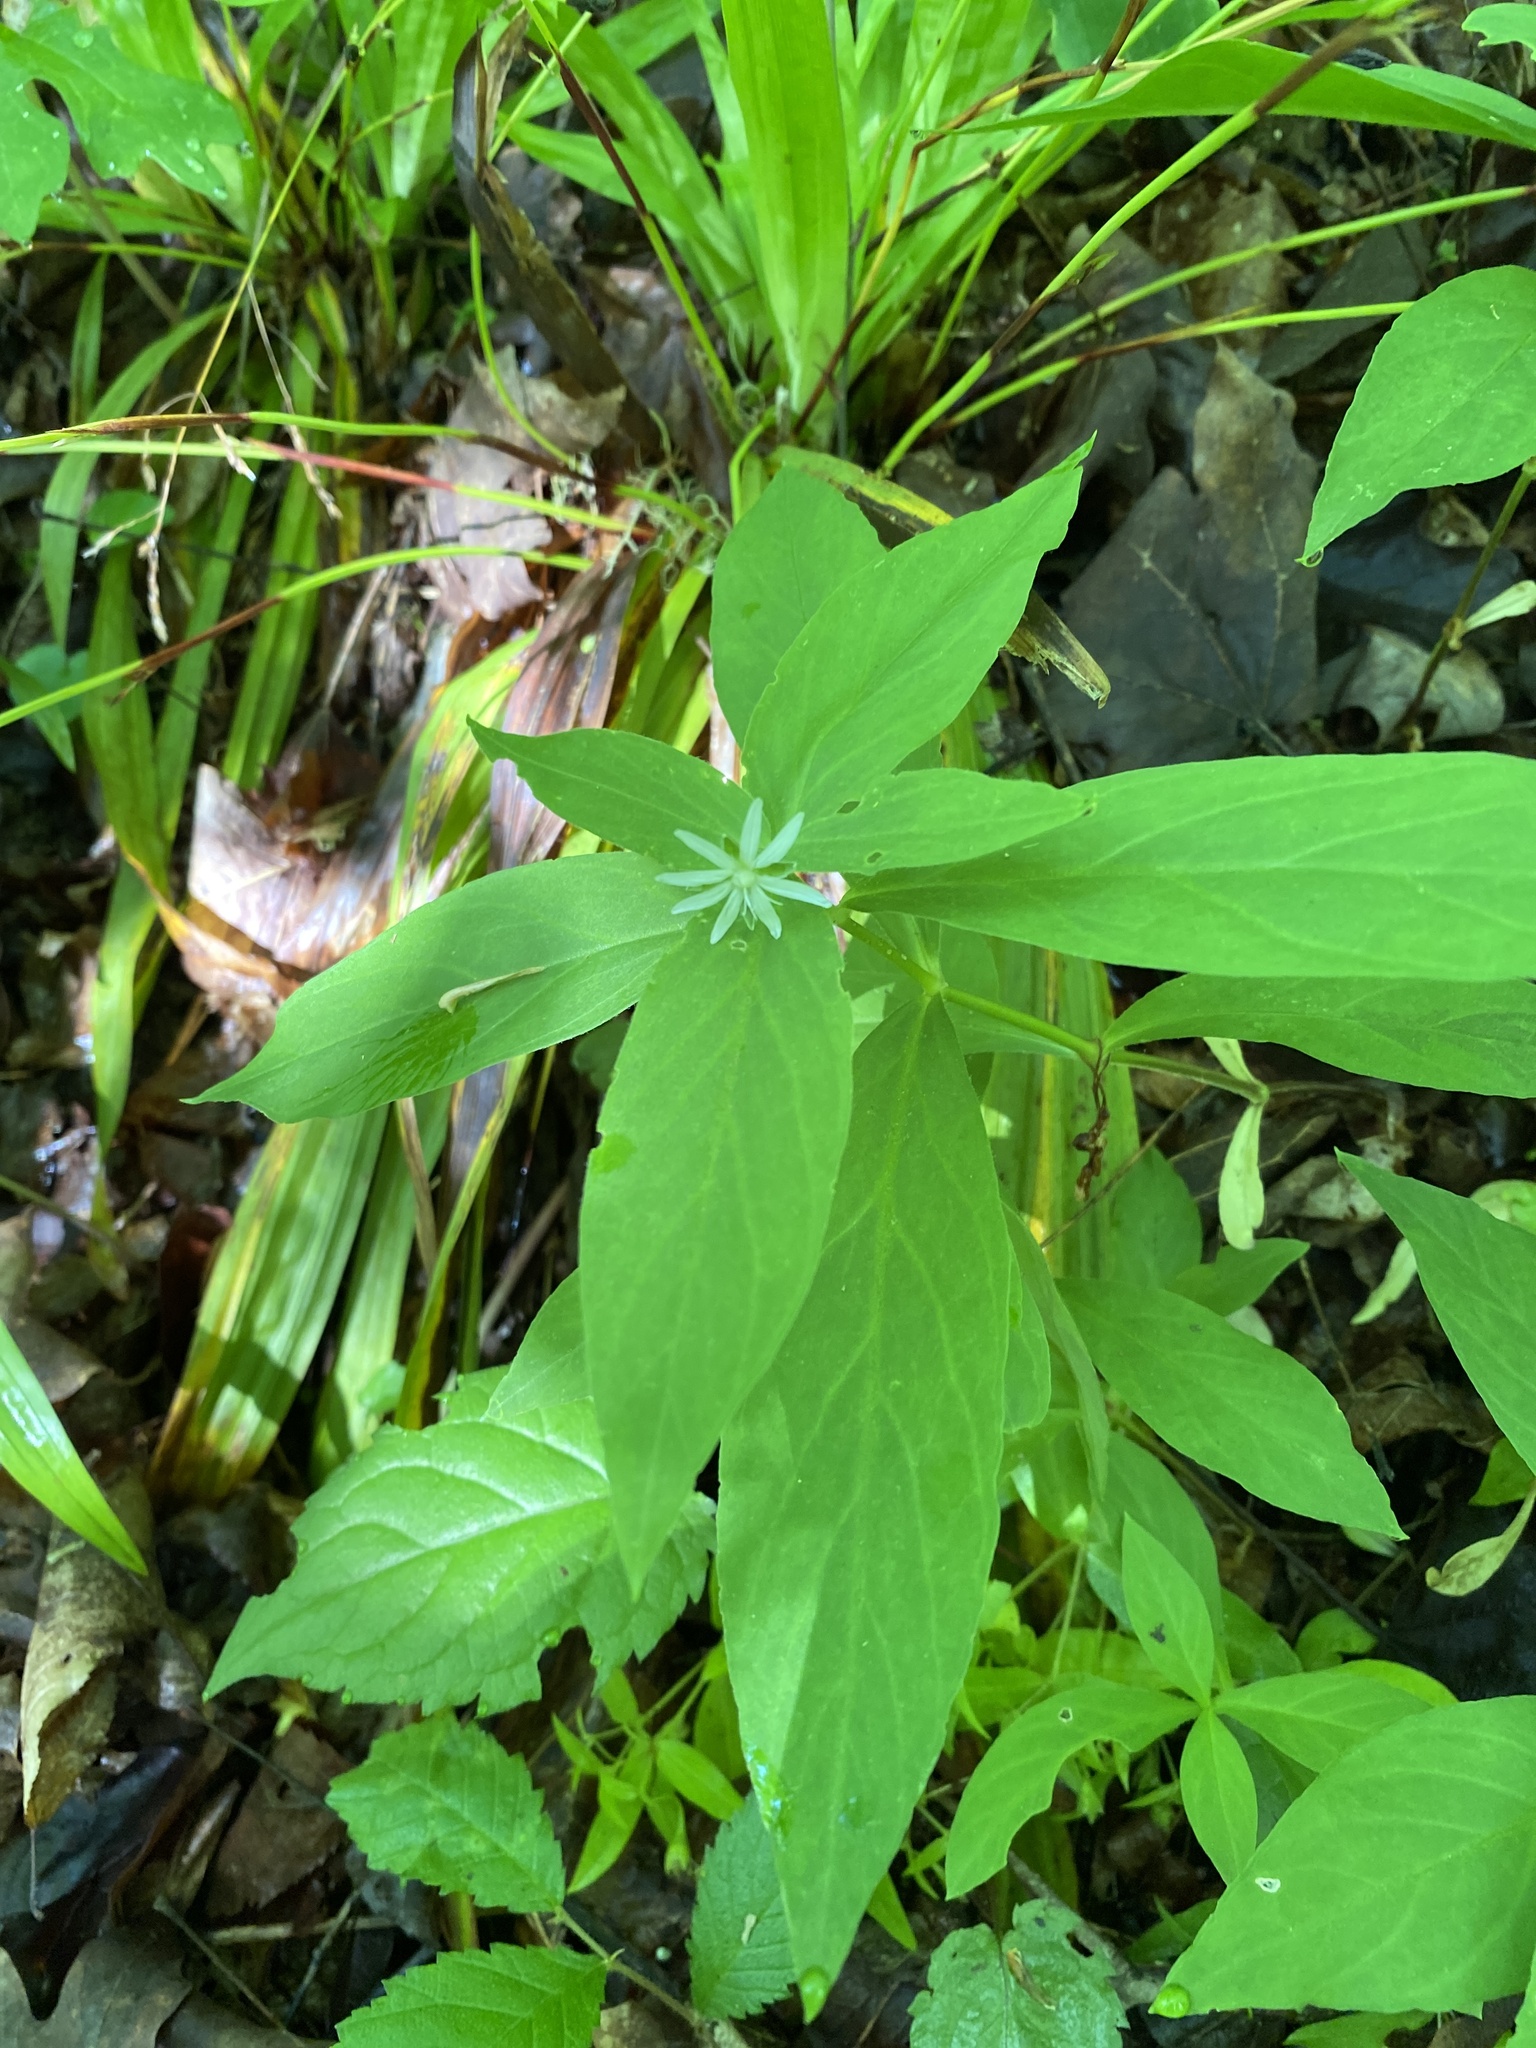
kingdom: Plantae
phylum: Tracheophyta
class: Magnoliopsida
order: Caryophyllales
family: Caryophyllaceae
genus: Stellaria
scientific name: Stellaria pubera
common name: Star chickweed
